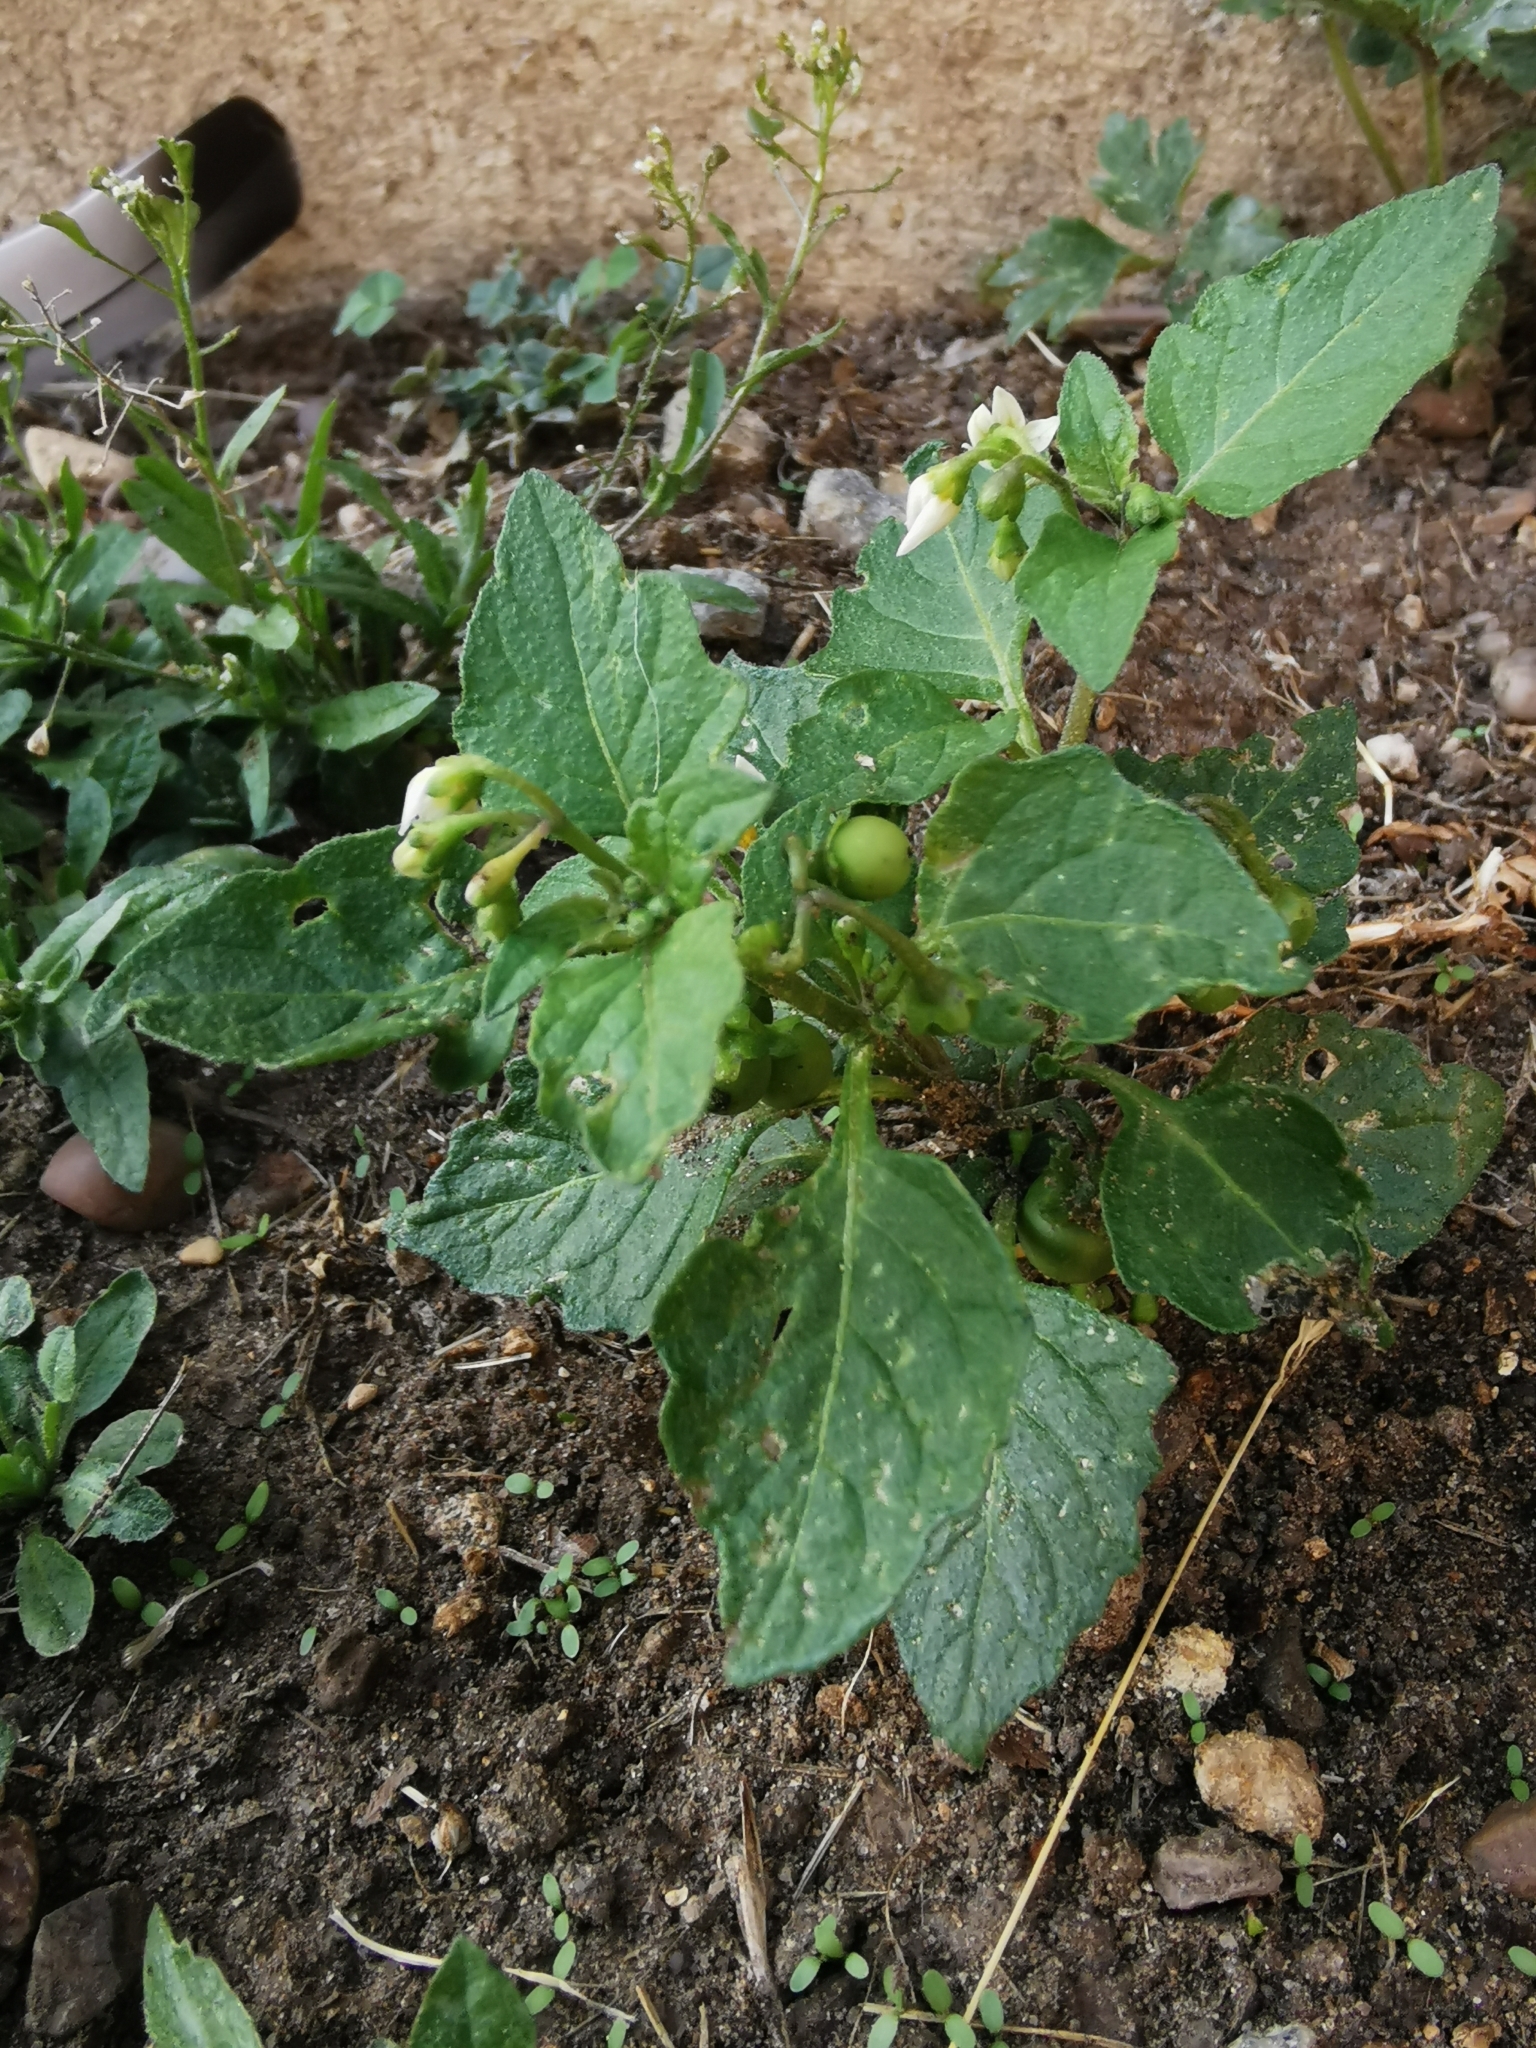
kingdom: Plantae
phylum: Tracheophyta
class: Magnoliopsida
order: Solanales
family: Solanaceae
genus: Solanum
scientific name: Solanum nigrum
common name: Black nightshade
